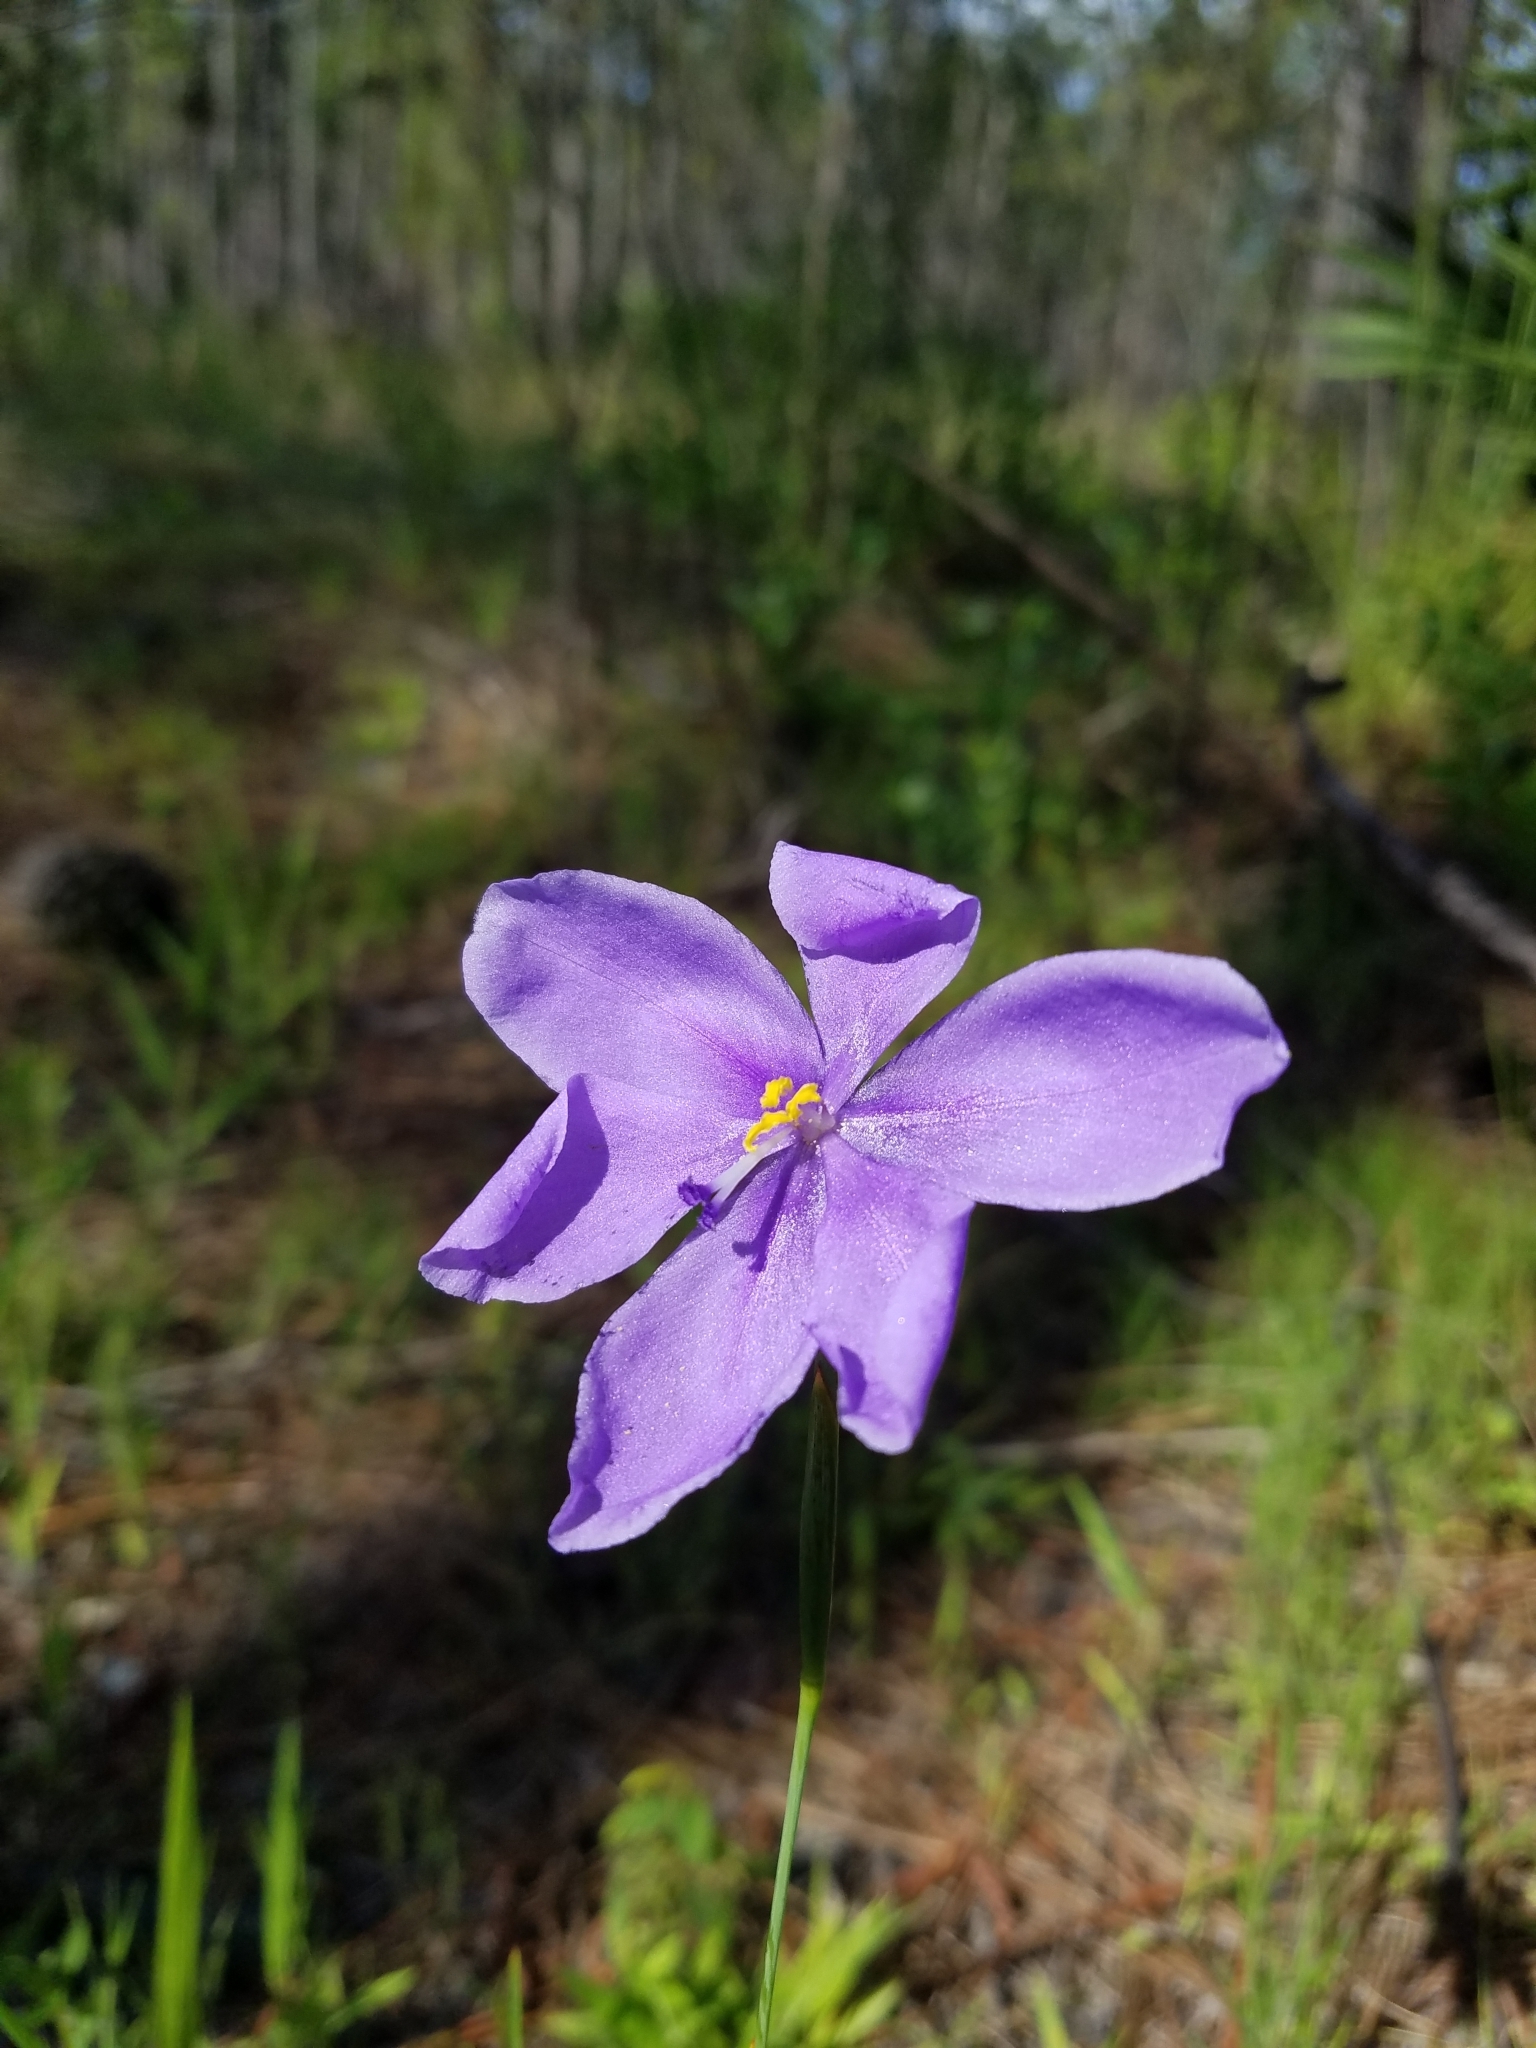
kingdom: Plantae
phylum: Tracheophyta
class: Liliopsida
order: Asparagales
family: Iridaceae
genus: Salpingostylis
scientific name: Salpingostylis caelestina
